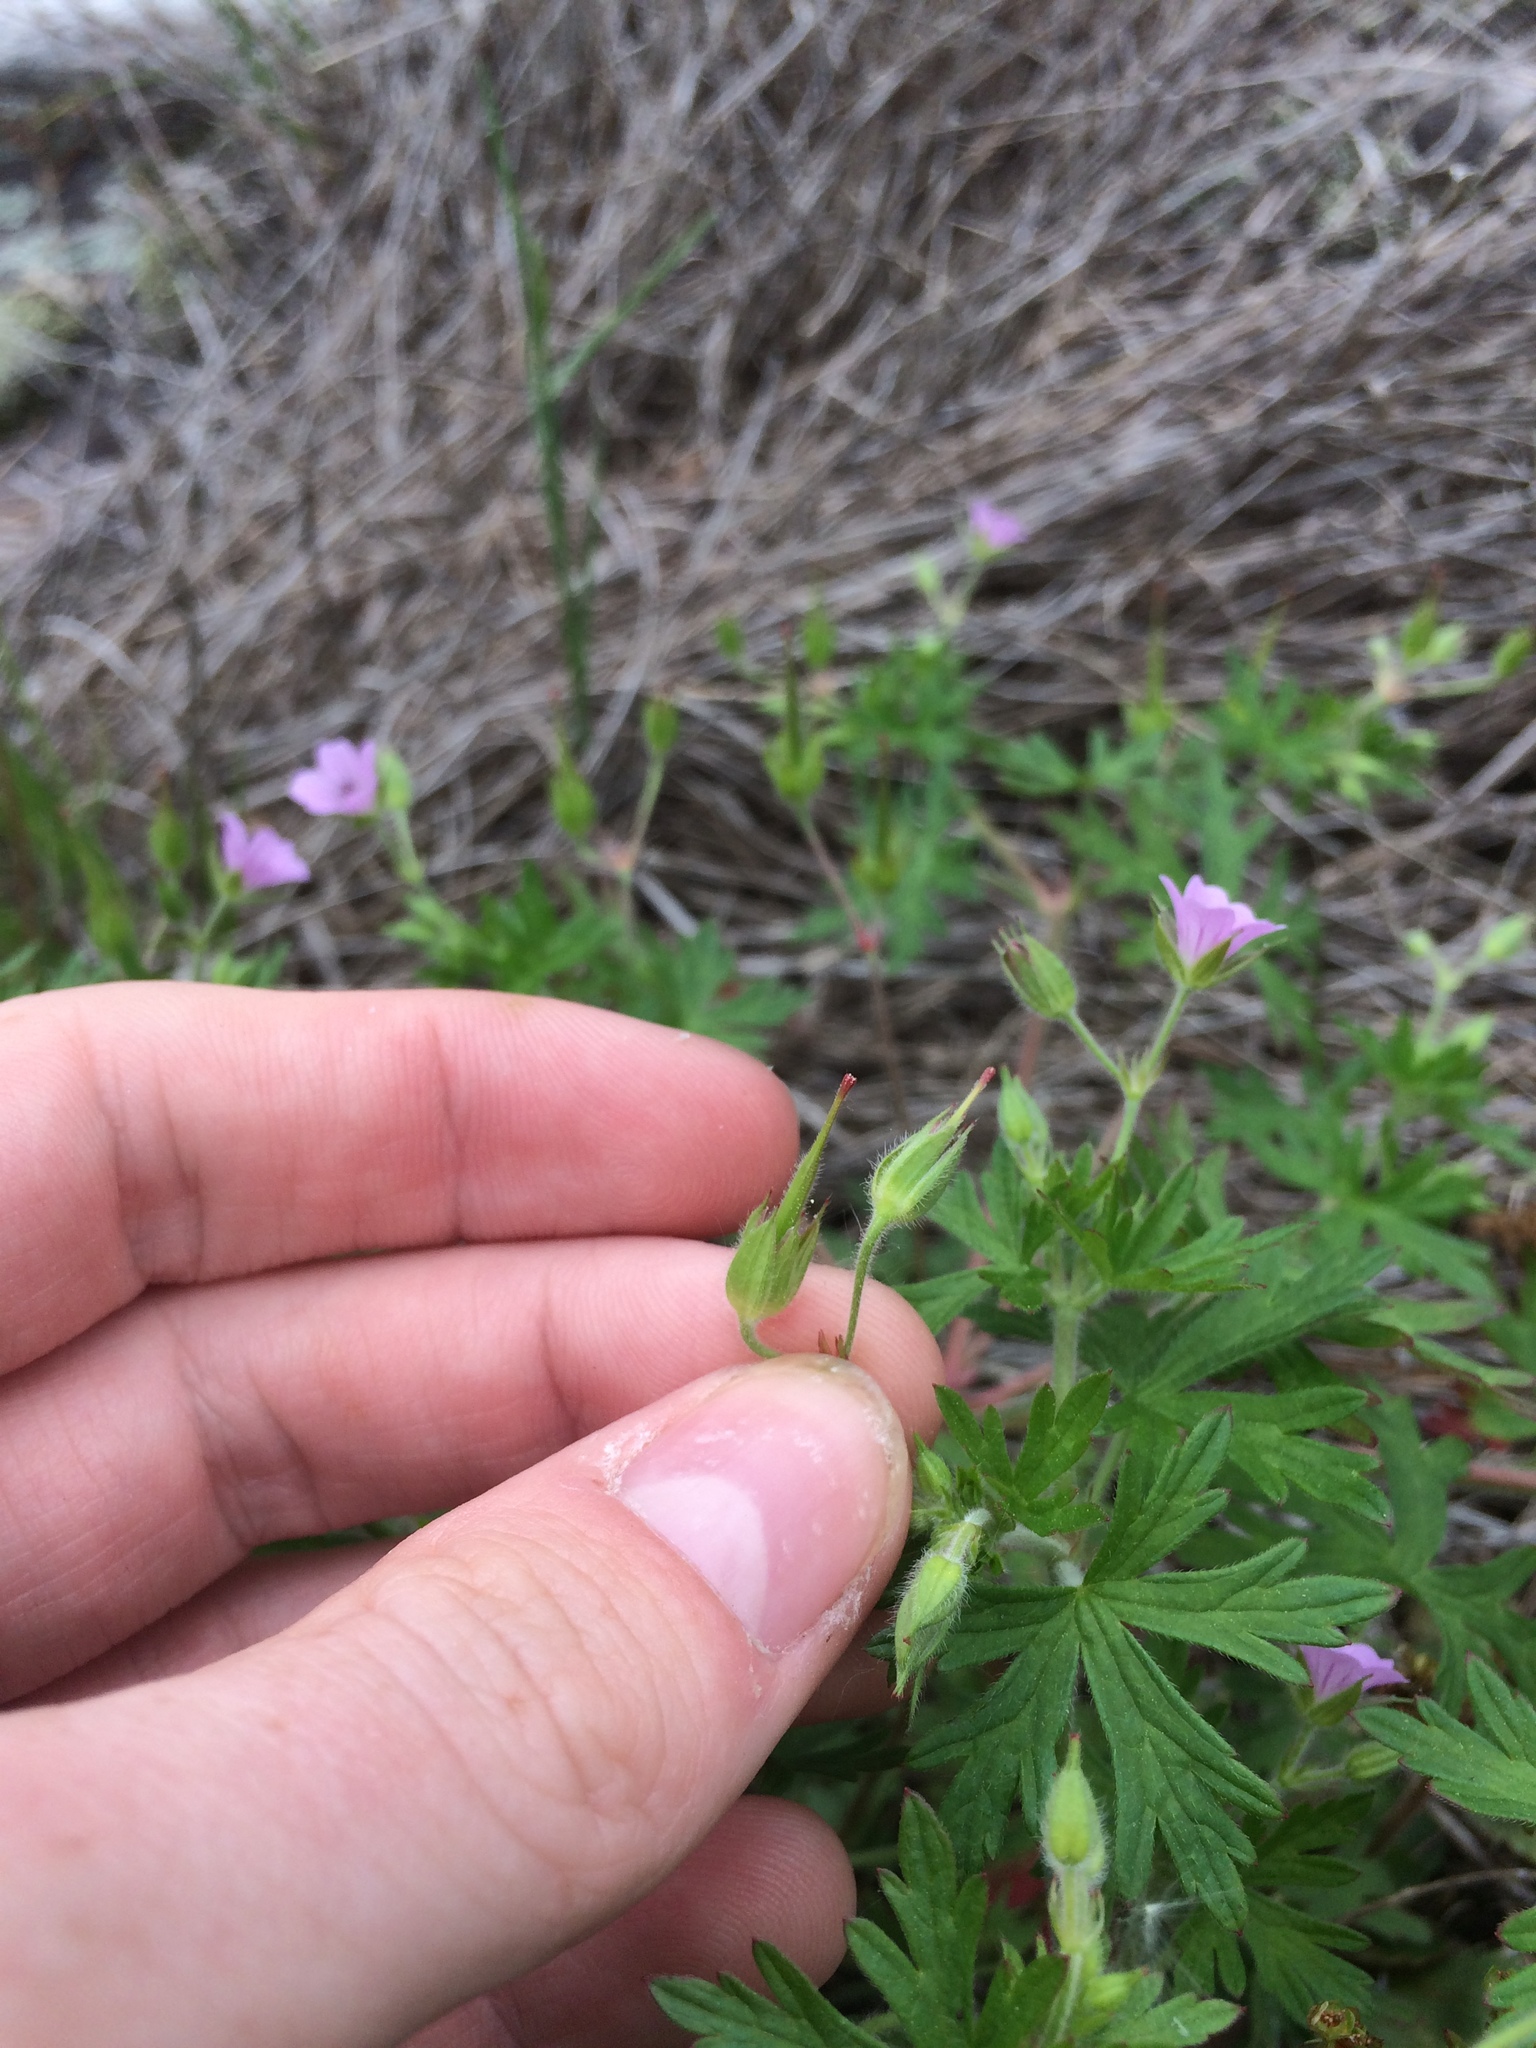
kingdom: Plantae
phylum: Tracheophyta
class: Magnoliopsida
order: Geraniales
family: Geraniaceae
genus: Geranium
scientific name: Geranium bicknellii
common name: Bicknell's cranesbill
